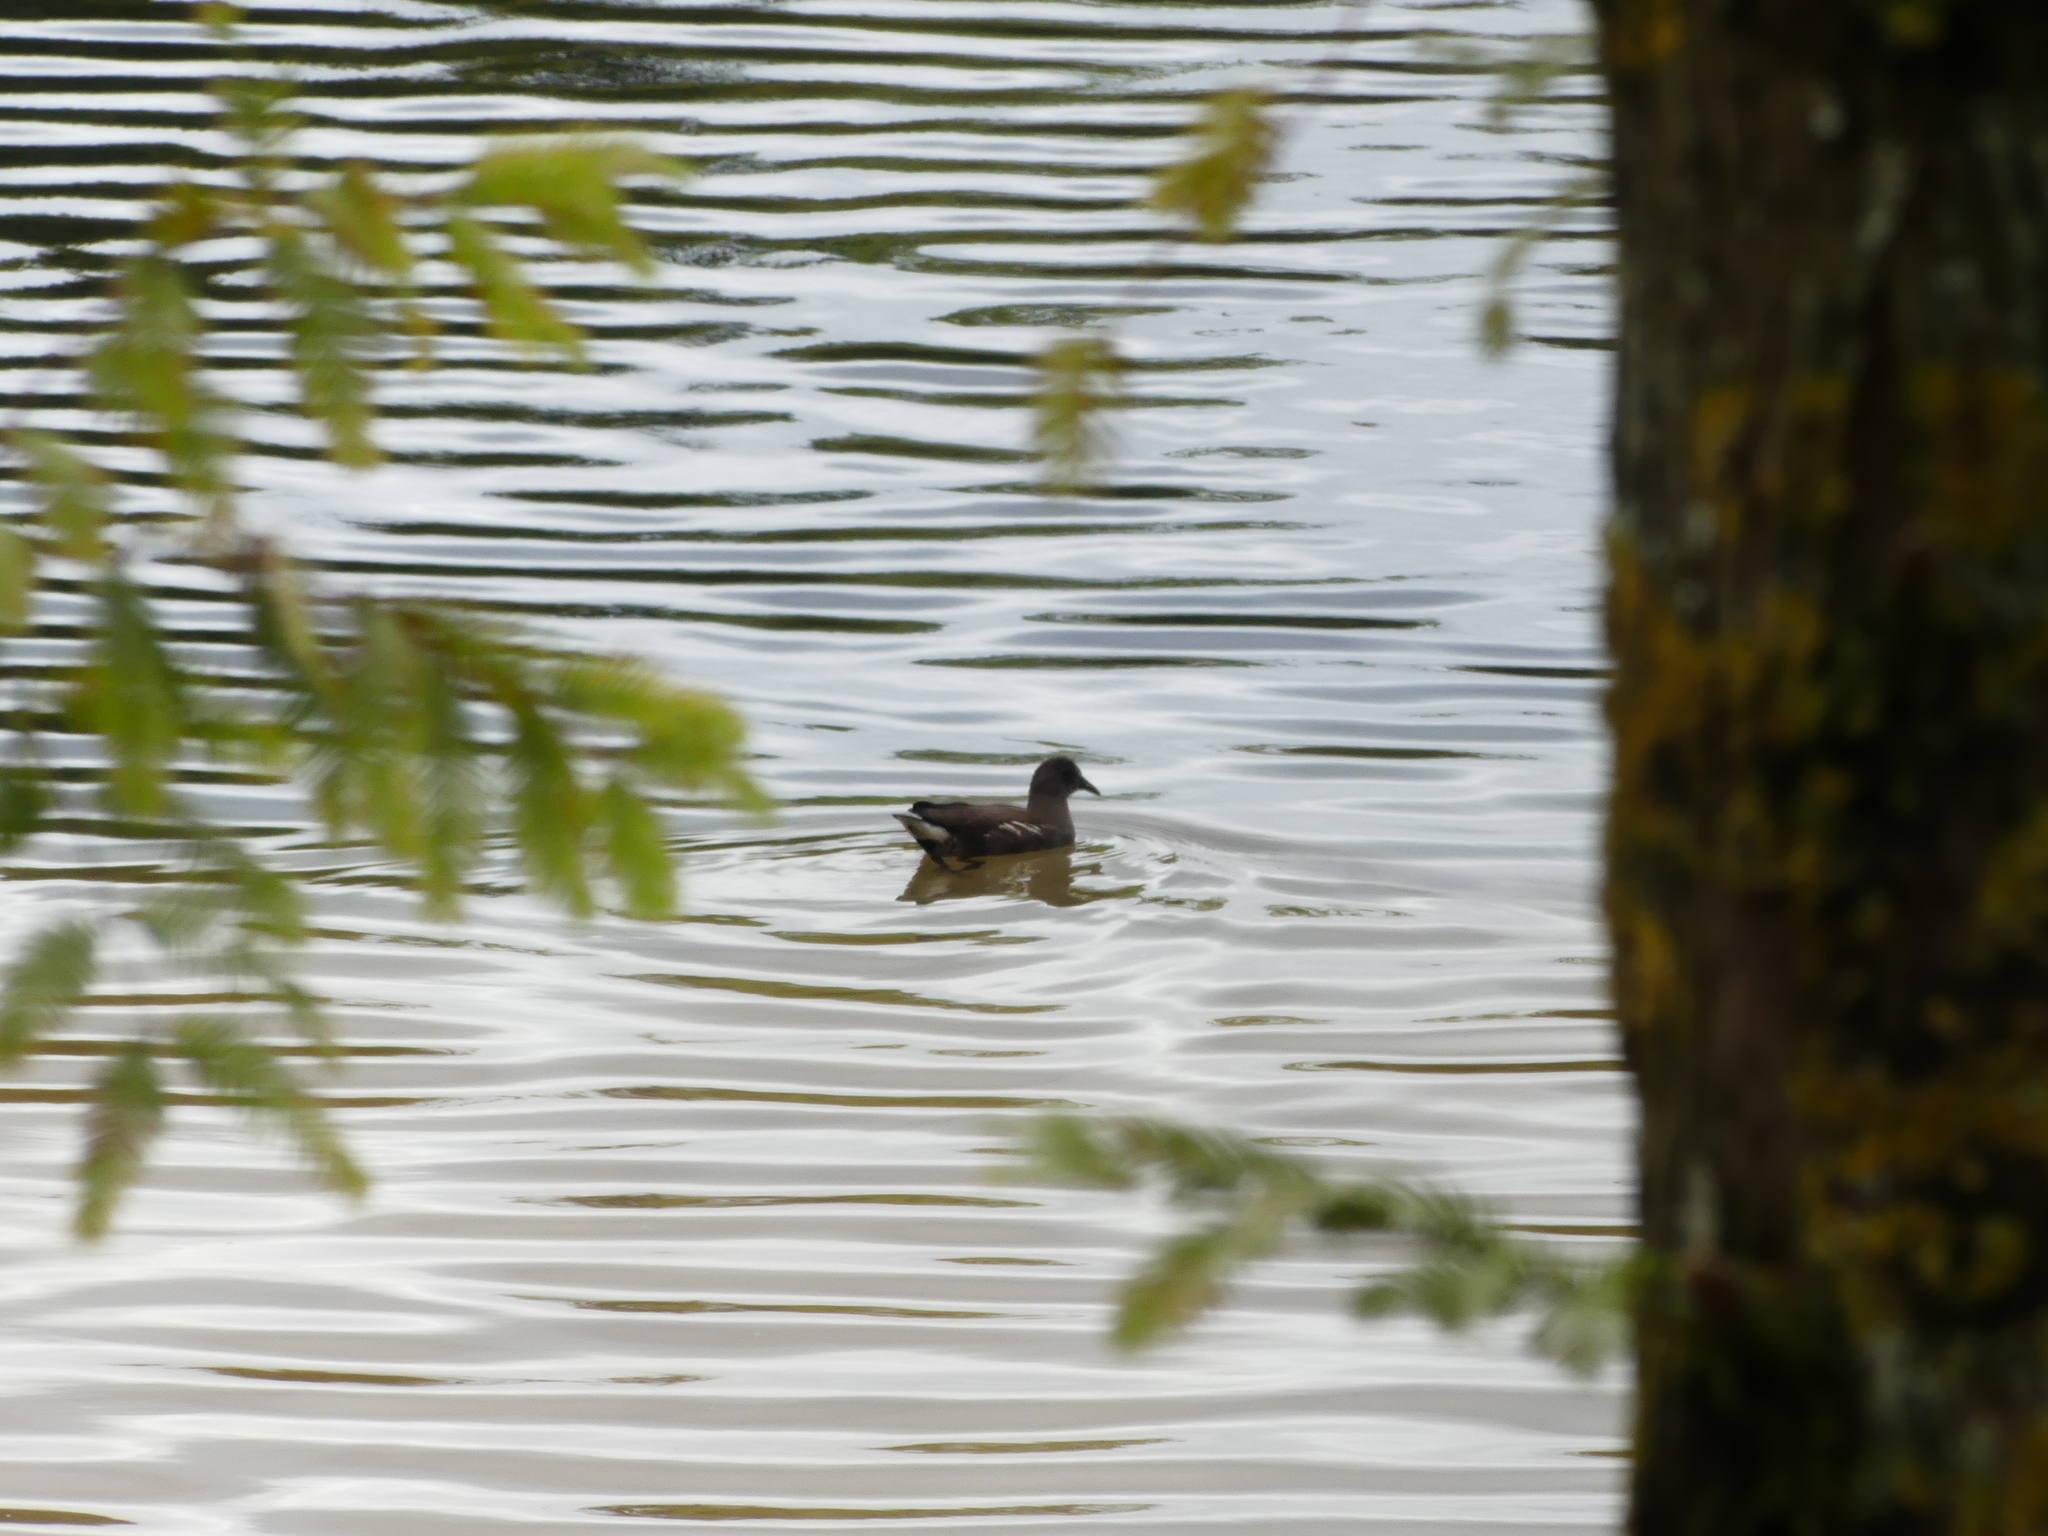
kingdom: Animalia
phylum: Chordata
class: Aves
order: Gruiformes
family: Rallidae
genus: Gallinula
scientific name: Gallinula chloropus
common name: Common moorhen
